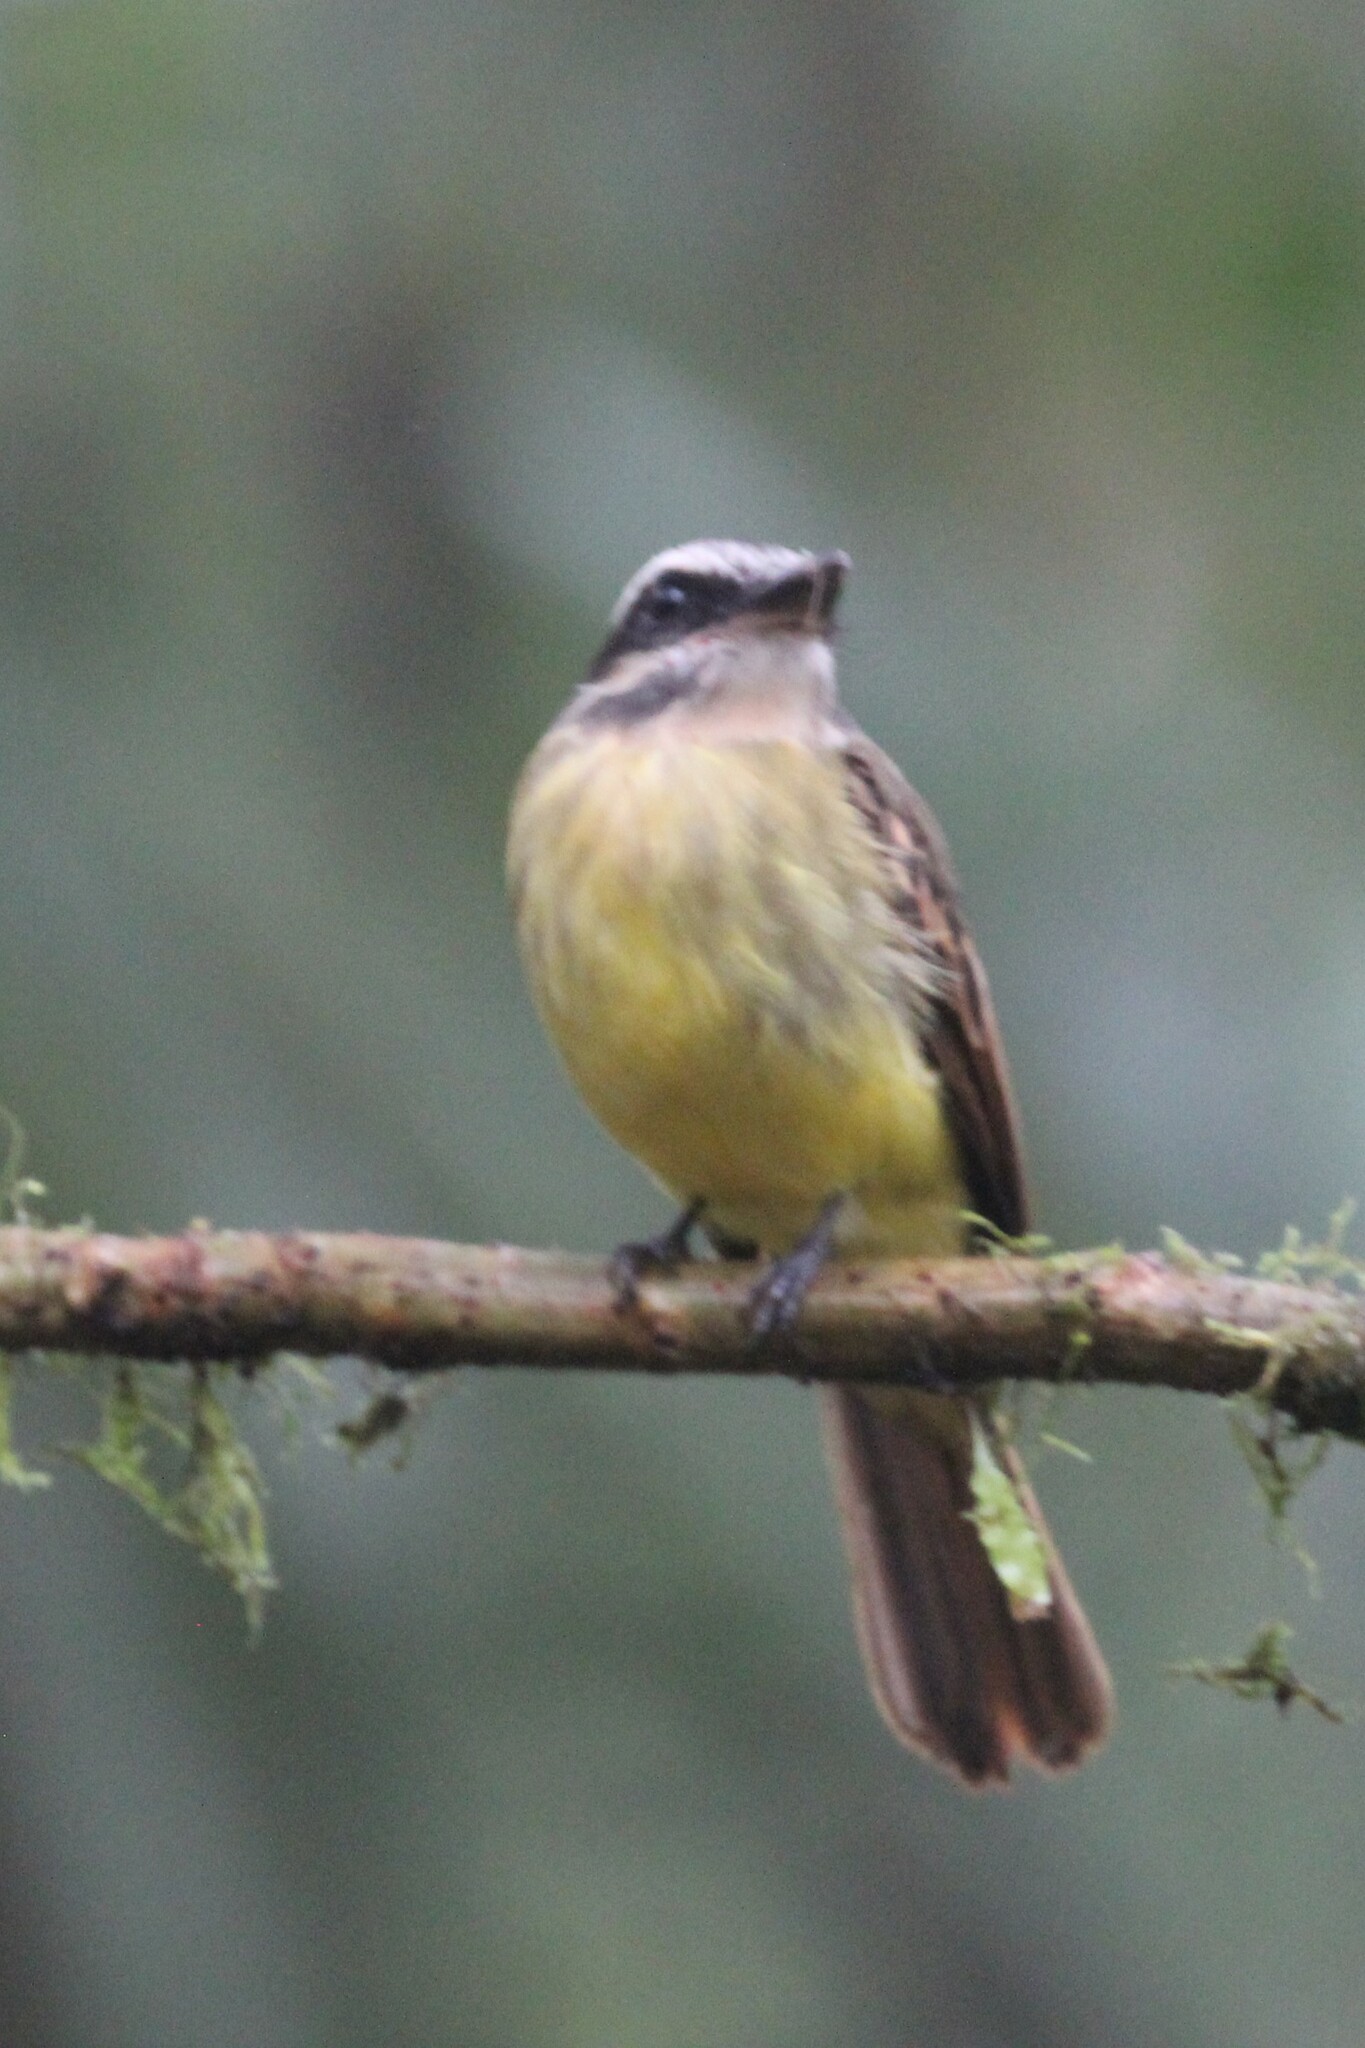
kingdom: Animalia
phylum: Chordata
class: Aves
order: Passeriformes
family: Tyrannidae
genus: Myiodynastes
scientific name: Myiodynastes hemichrysus
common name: Golden-bellied flycatcher
